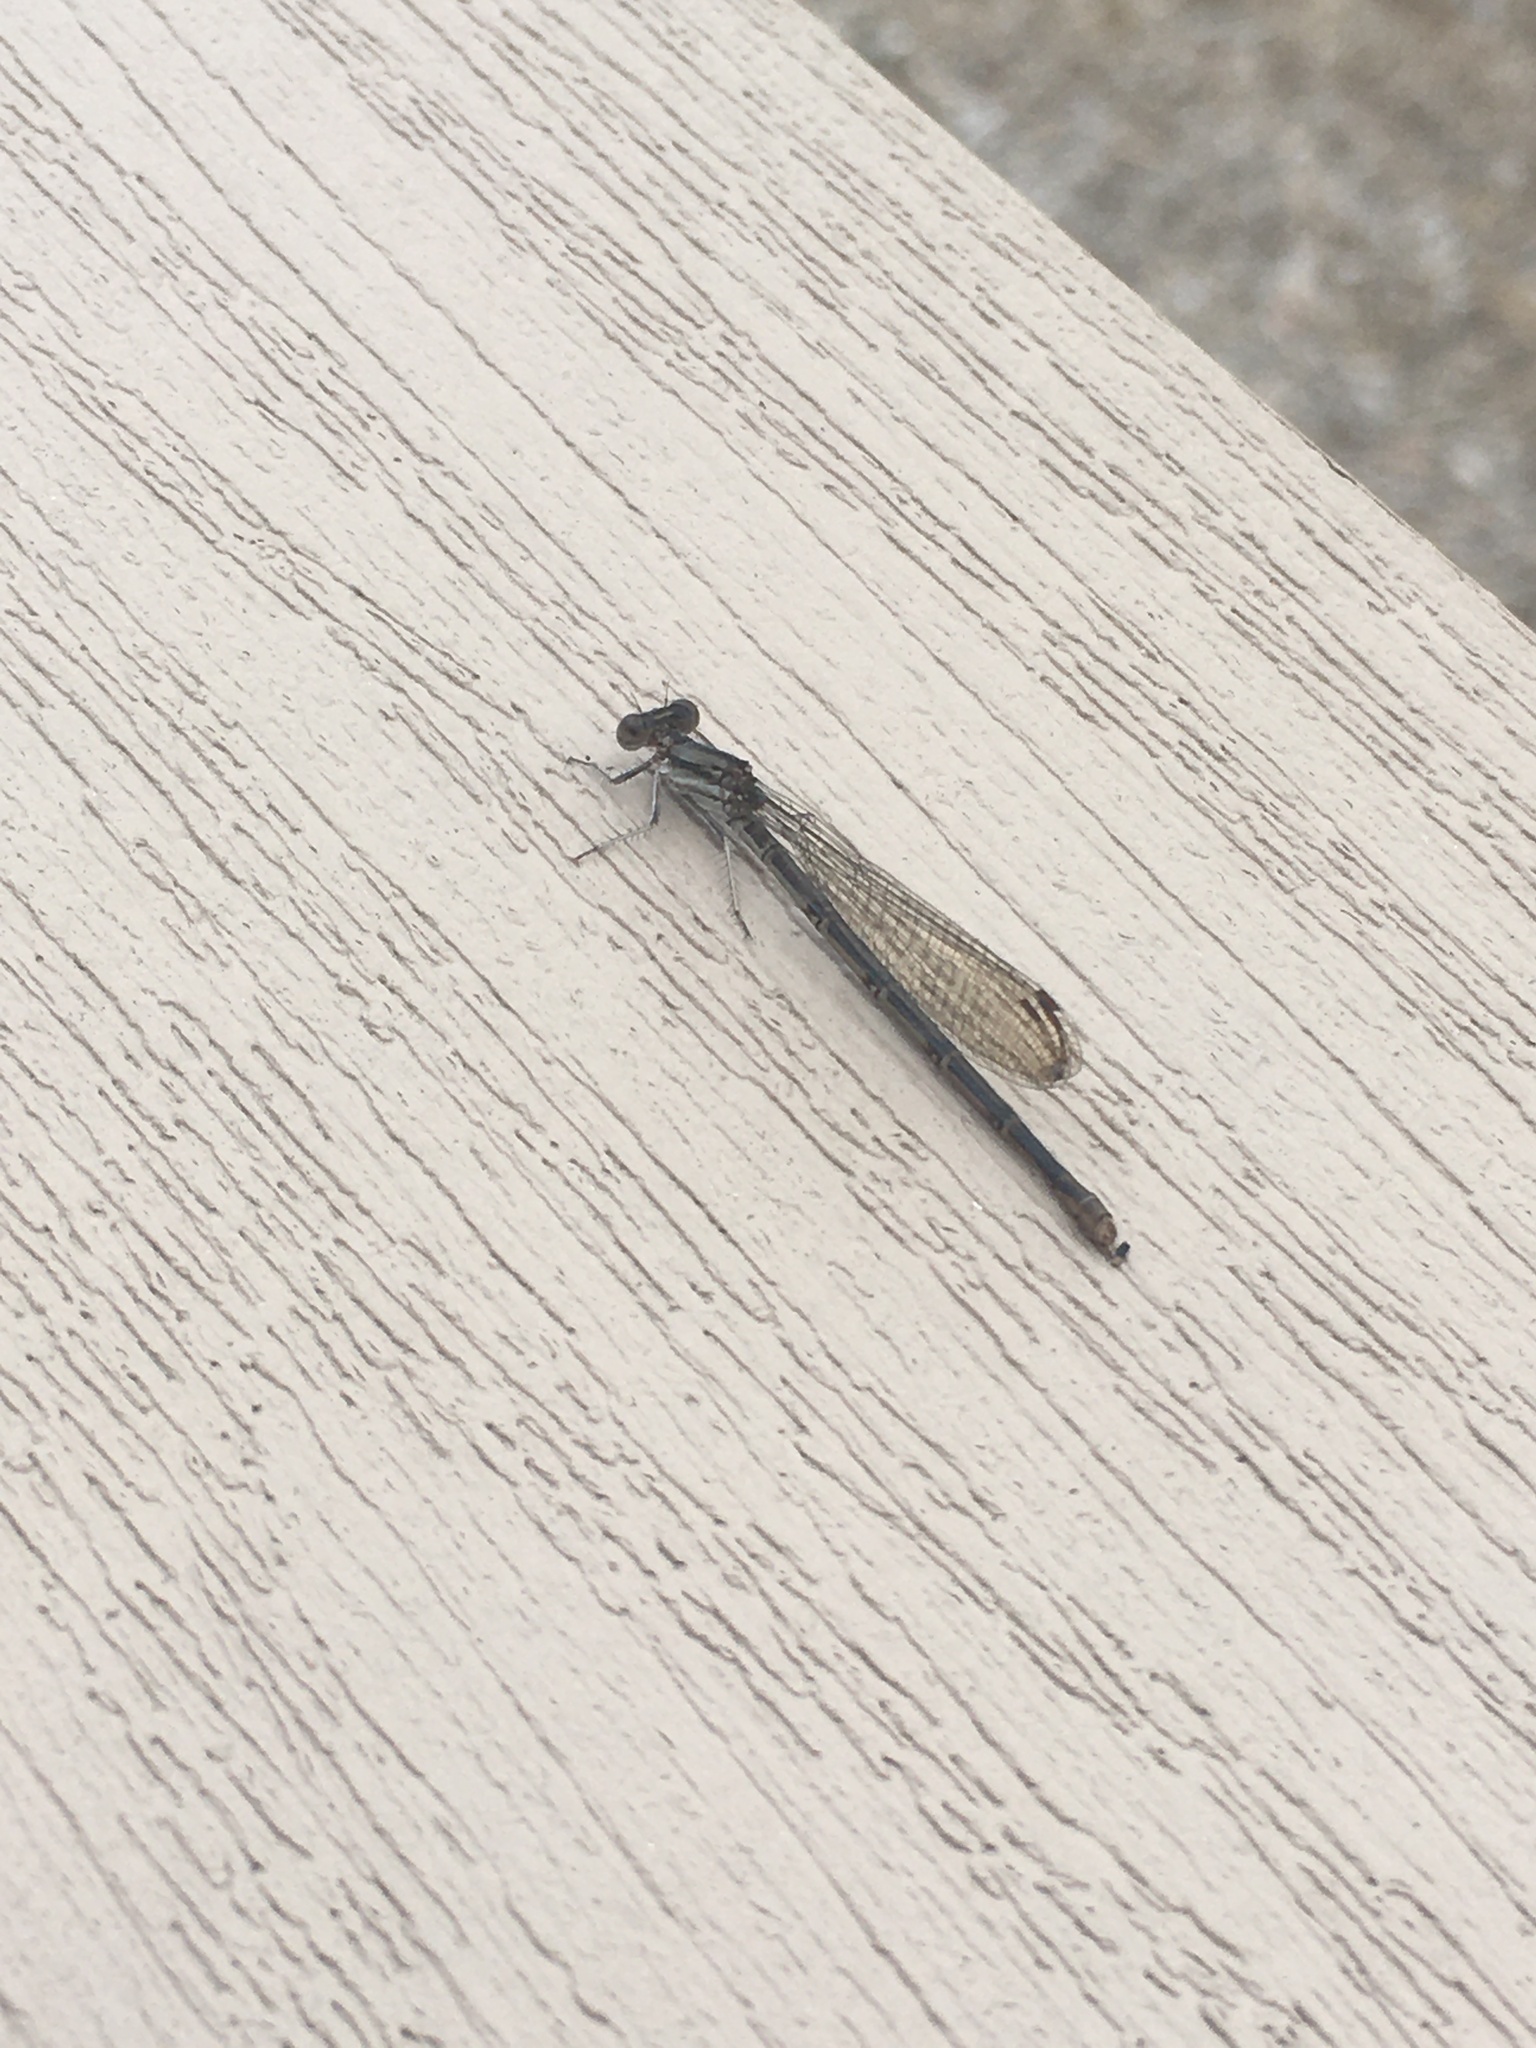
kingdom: Animalia
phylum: Arthropoda
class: Insecta
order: Odonata
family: Coenagrionidae
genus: Argia
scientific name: Argia fumipennis
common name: Variable dancer
